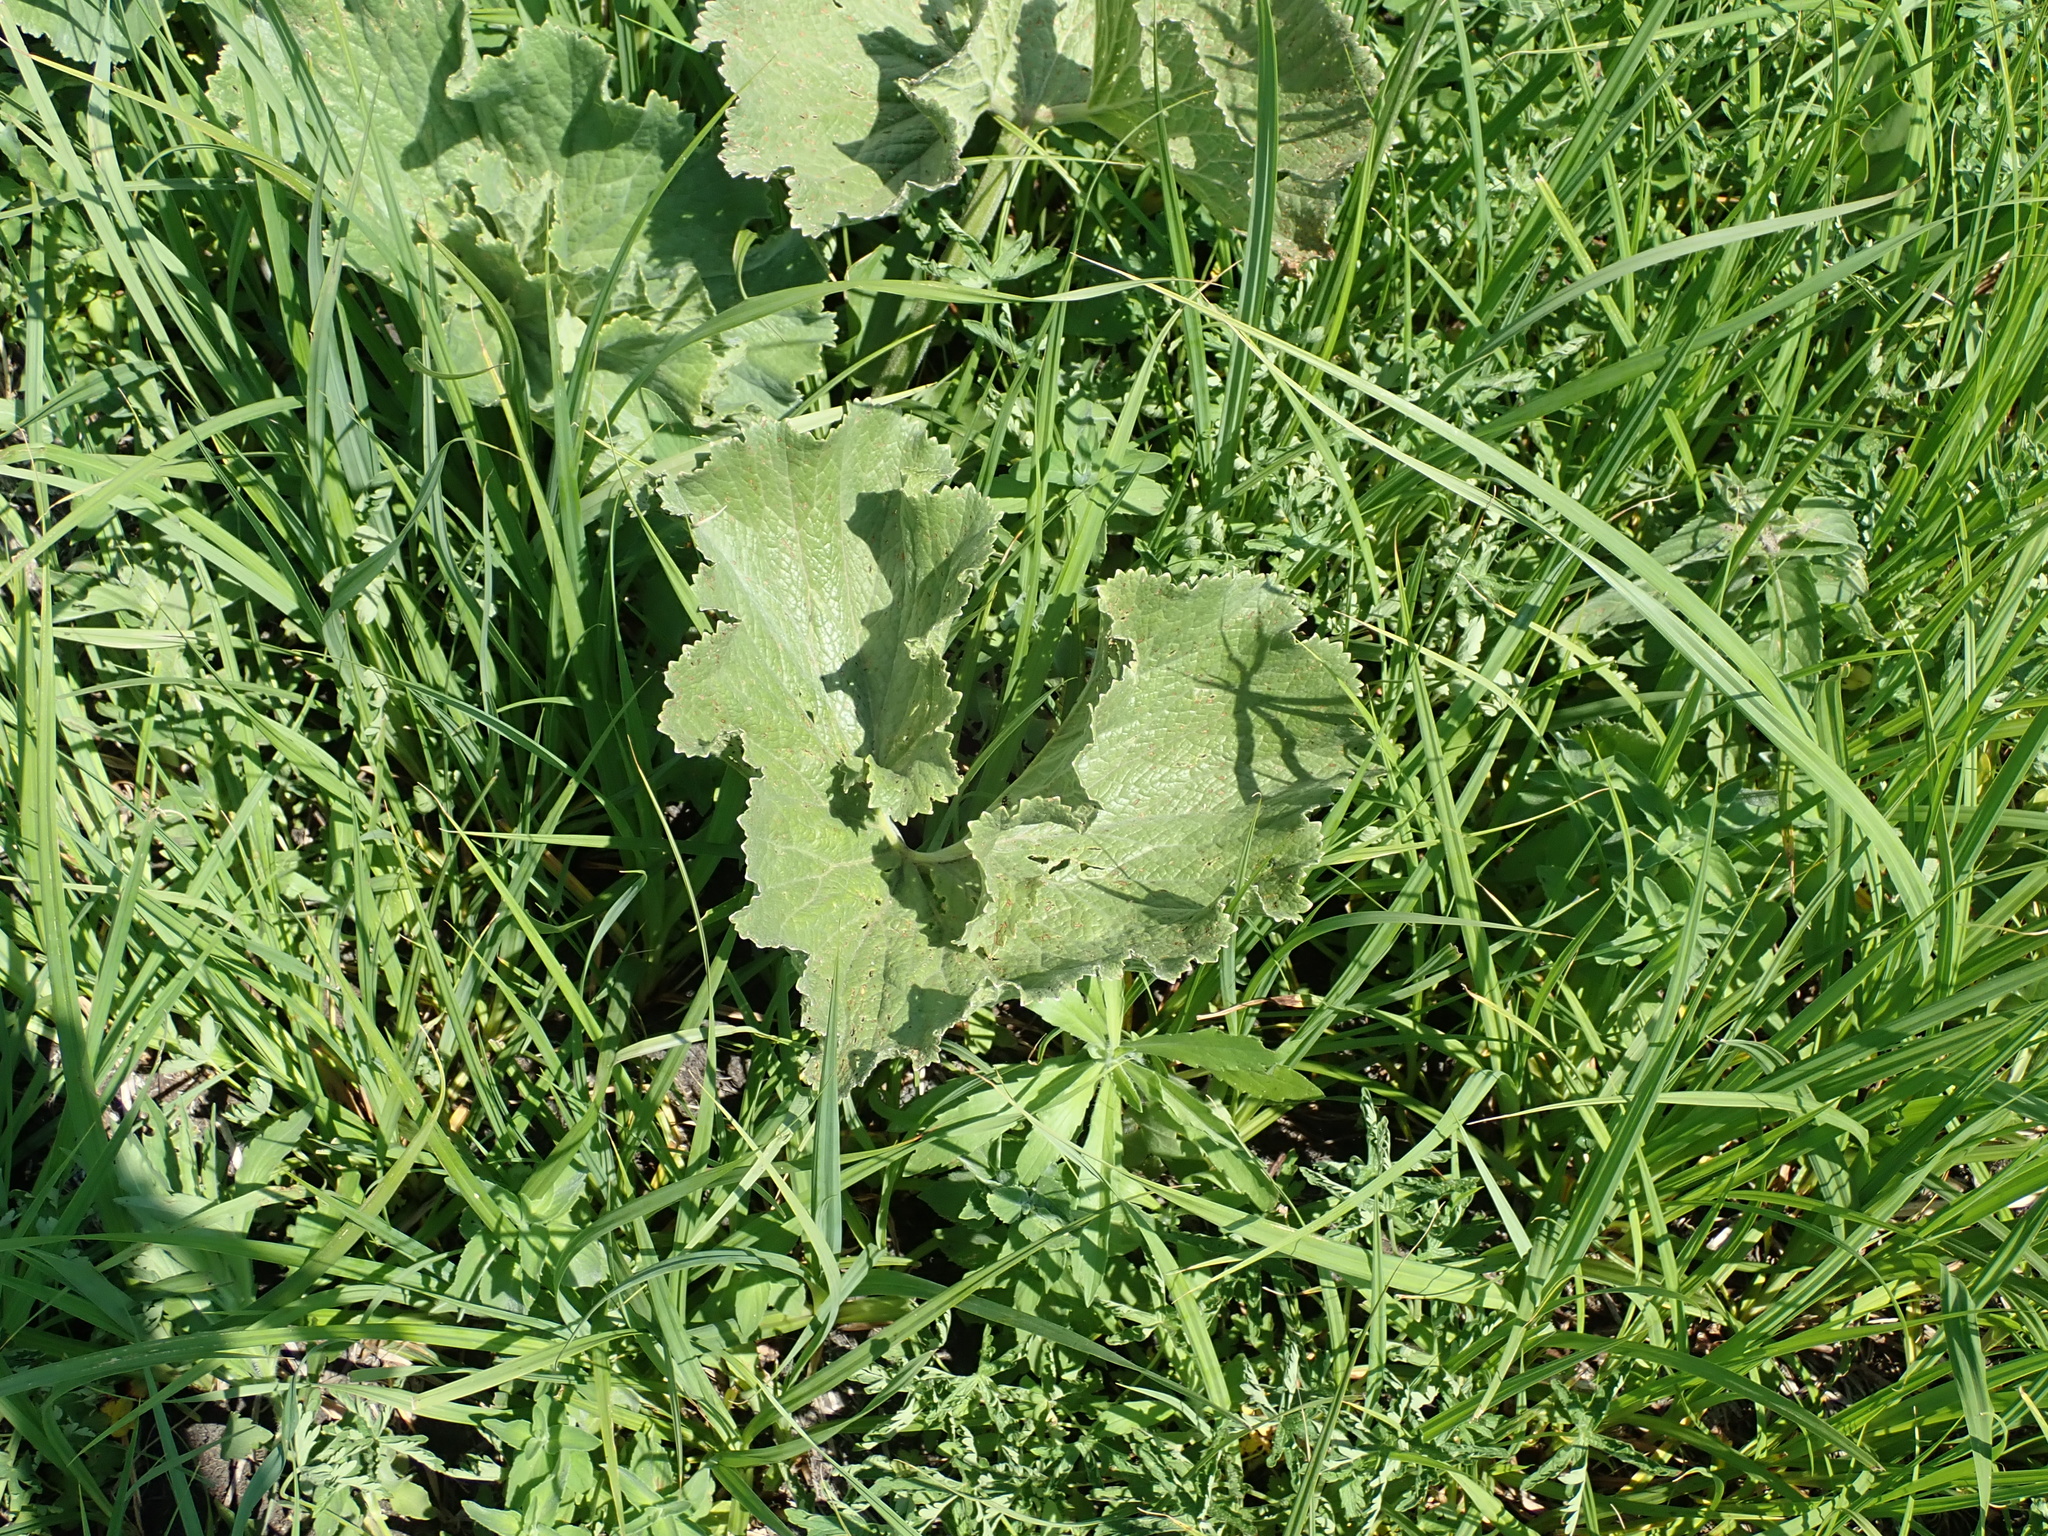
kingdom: Plantae
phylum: Tracheophyta
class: Magnoliopsida
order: Gunnerales
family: Gunneraceae
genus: Gunnera
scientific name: Gunnera perpensa
